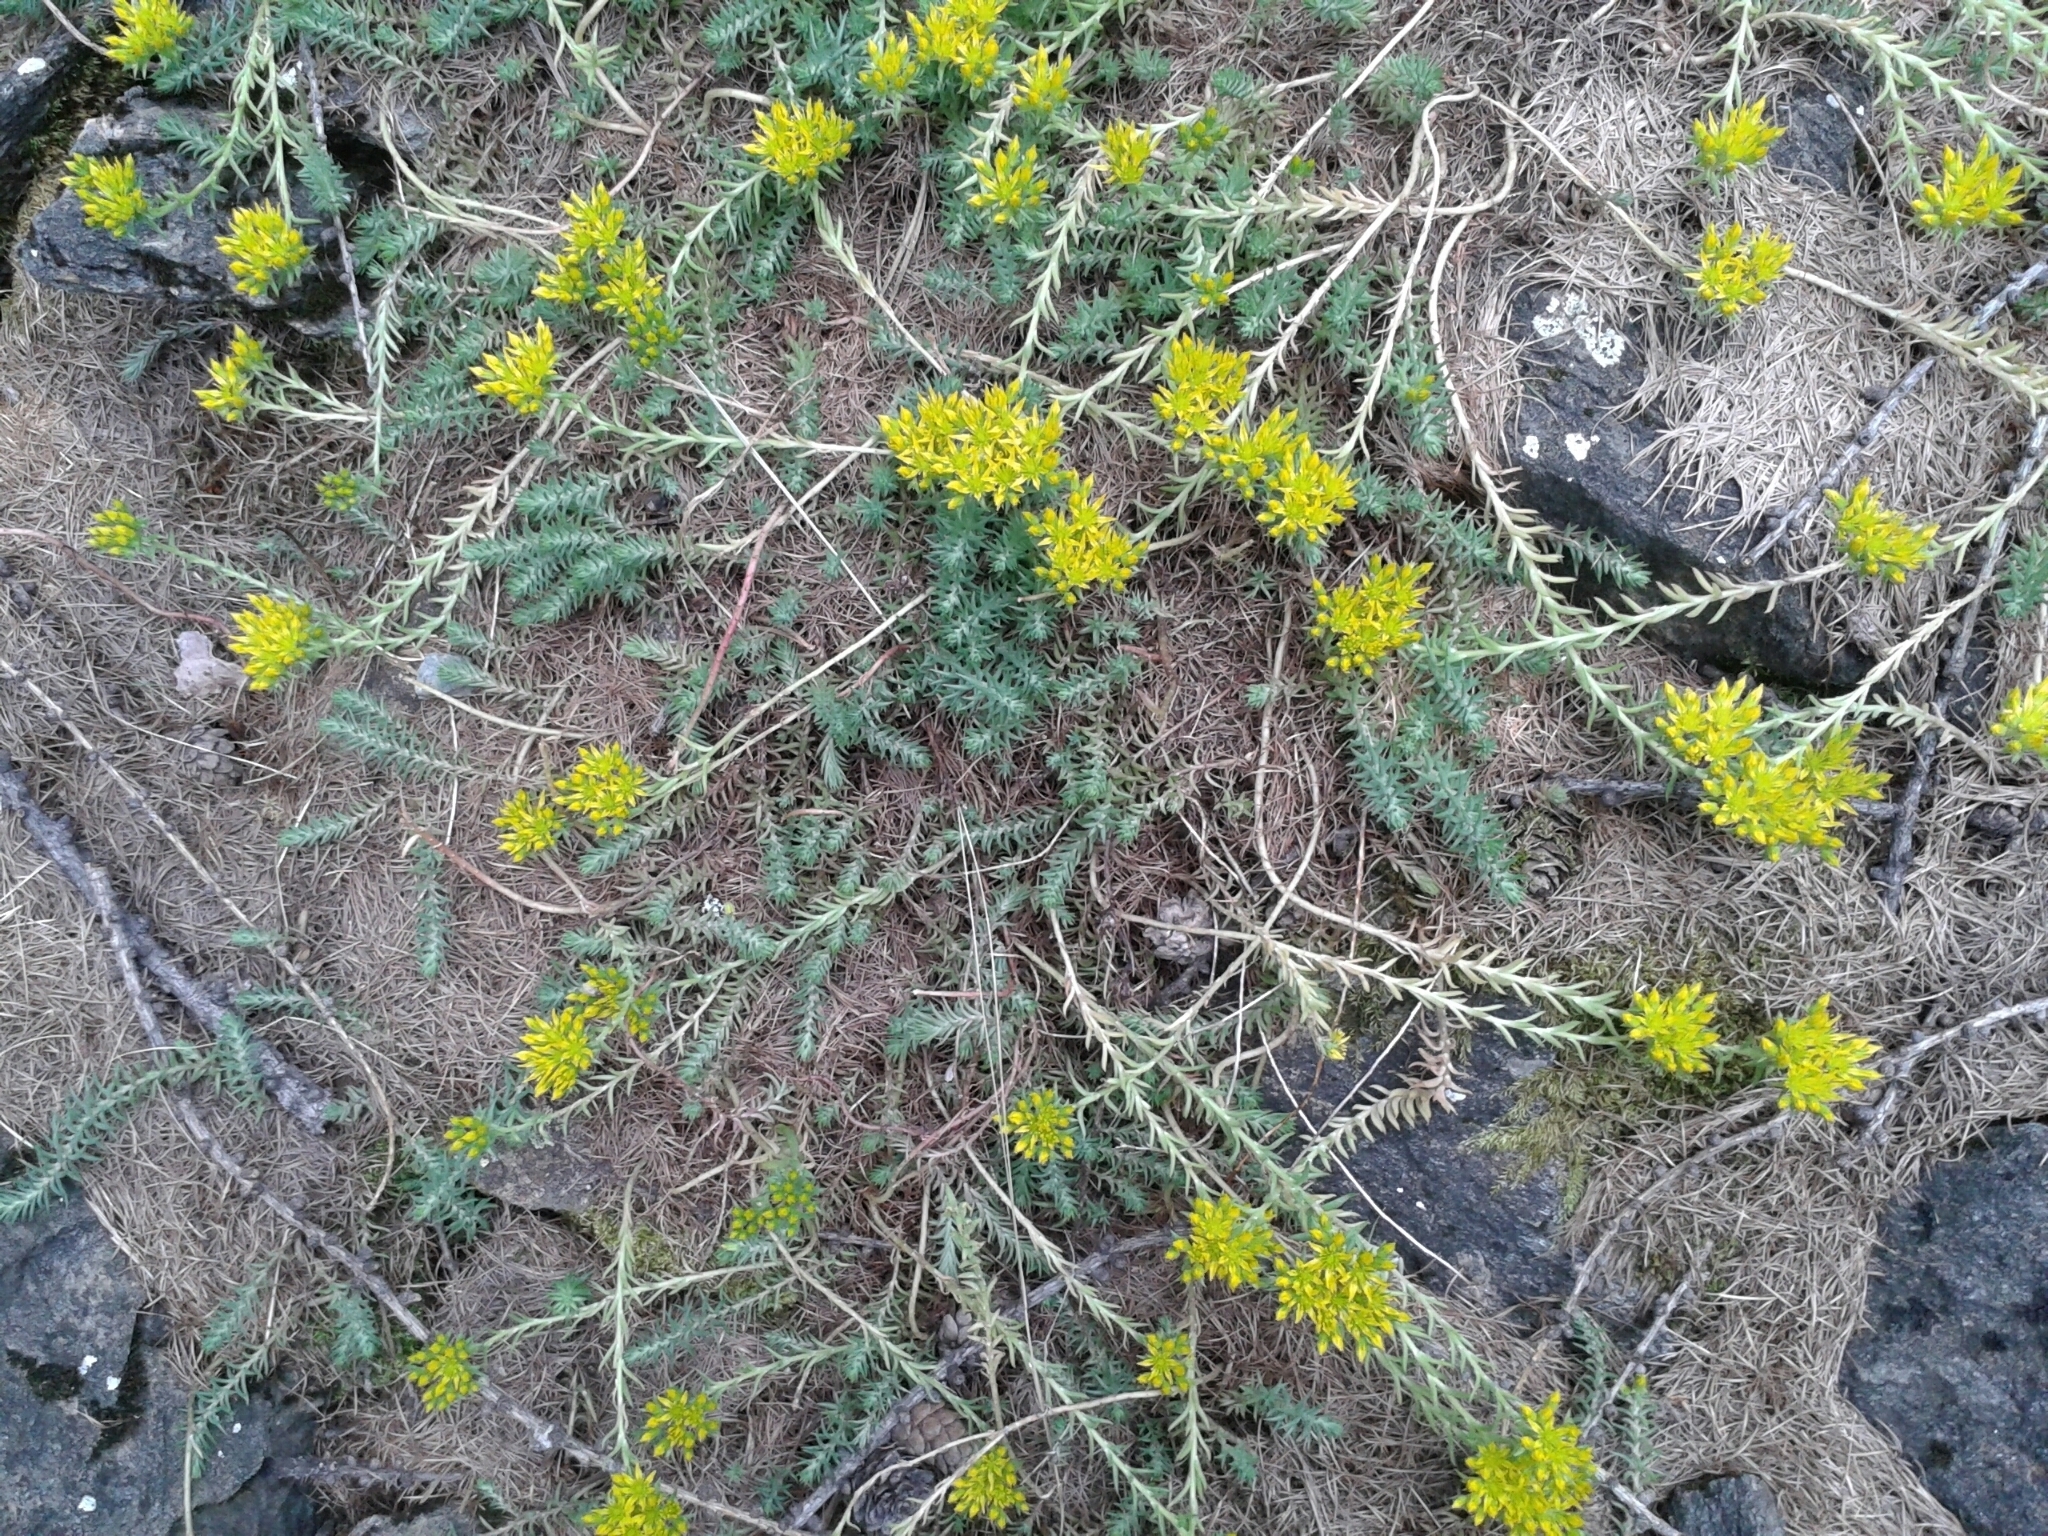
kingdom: Plantae
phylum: Tracheophyta
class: Magnoliopsida
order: Saxifragales
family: Crassulaceae
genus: Petrosedum
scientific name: Petrosedum montanum
